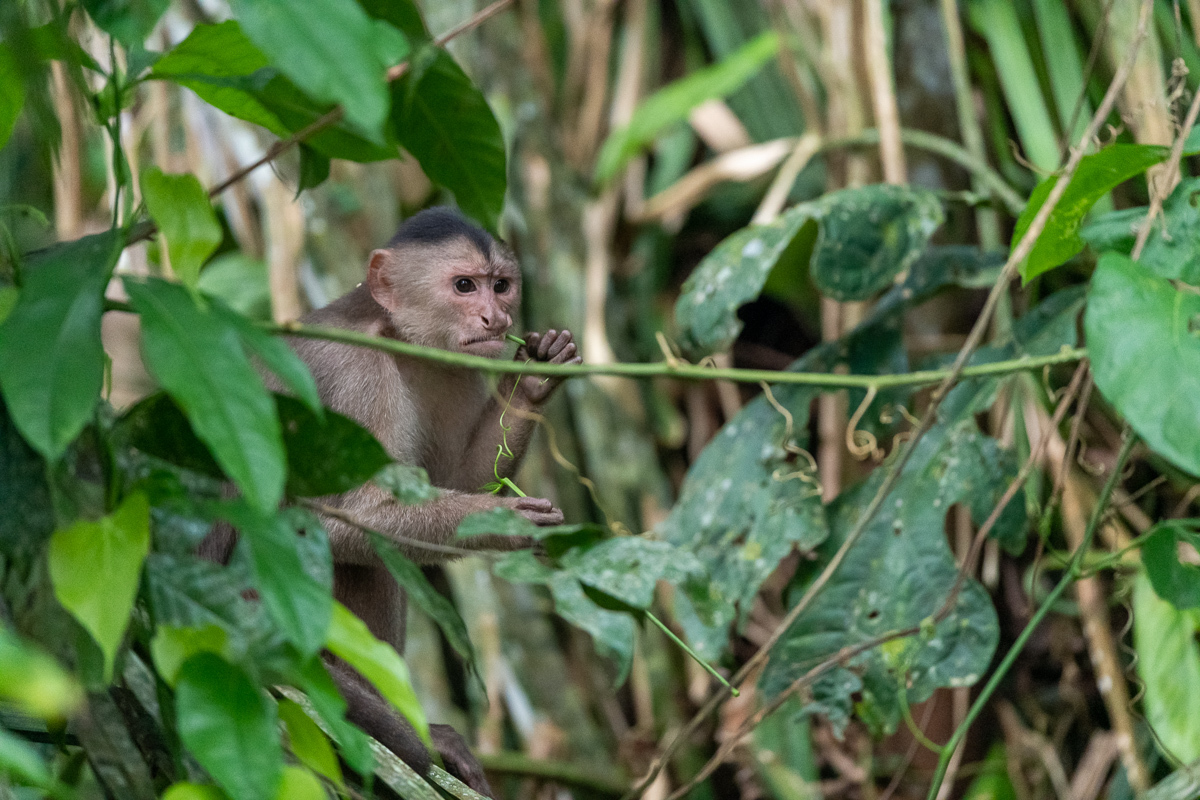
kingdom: Animalia
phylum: Chordata
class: Mammalia
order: Primates
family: Cebidae
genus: Cebus
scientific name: Cebus yuracus
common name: Peruvian white-fronted capuchin
